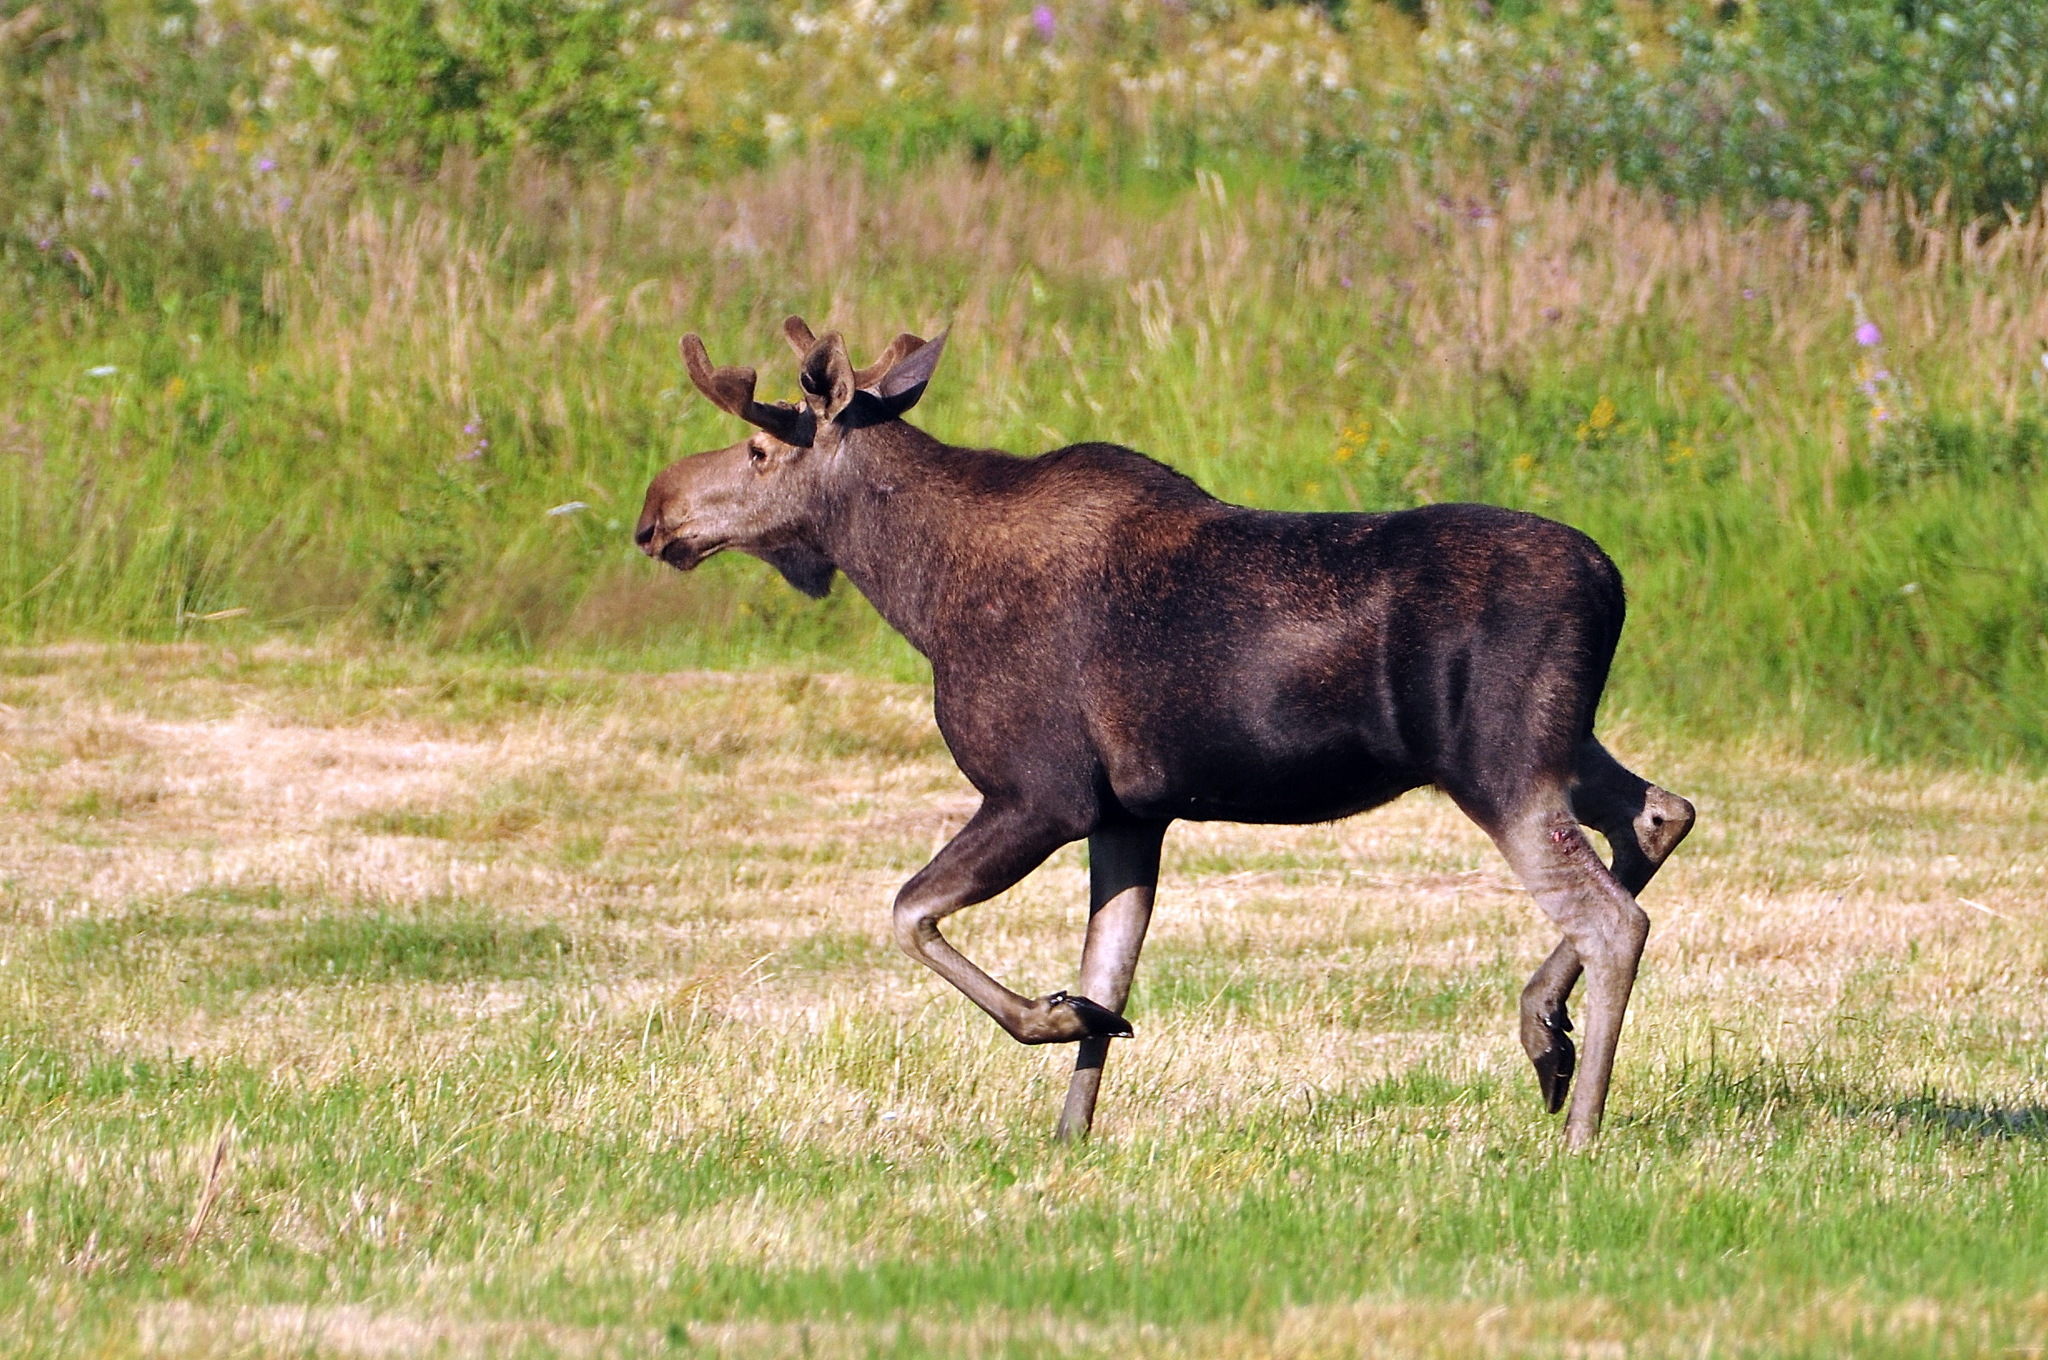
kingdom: Animalia
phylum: Chordata
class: Mammalia
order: Artiodactyla
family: Cervidae
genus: Alces
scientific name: Alces alces
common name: Moose
